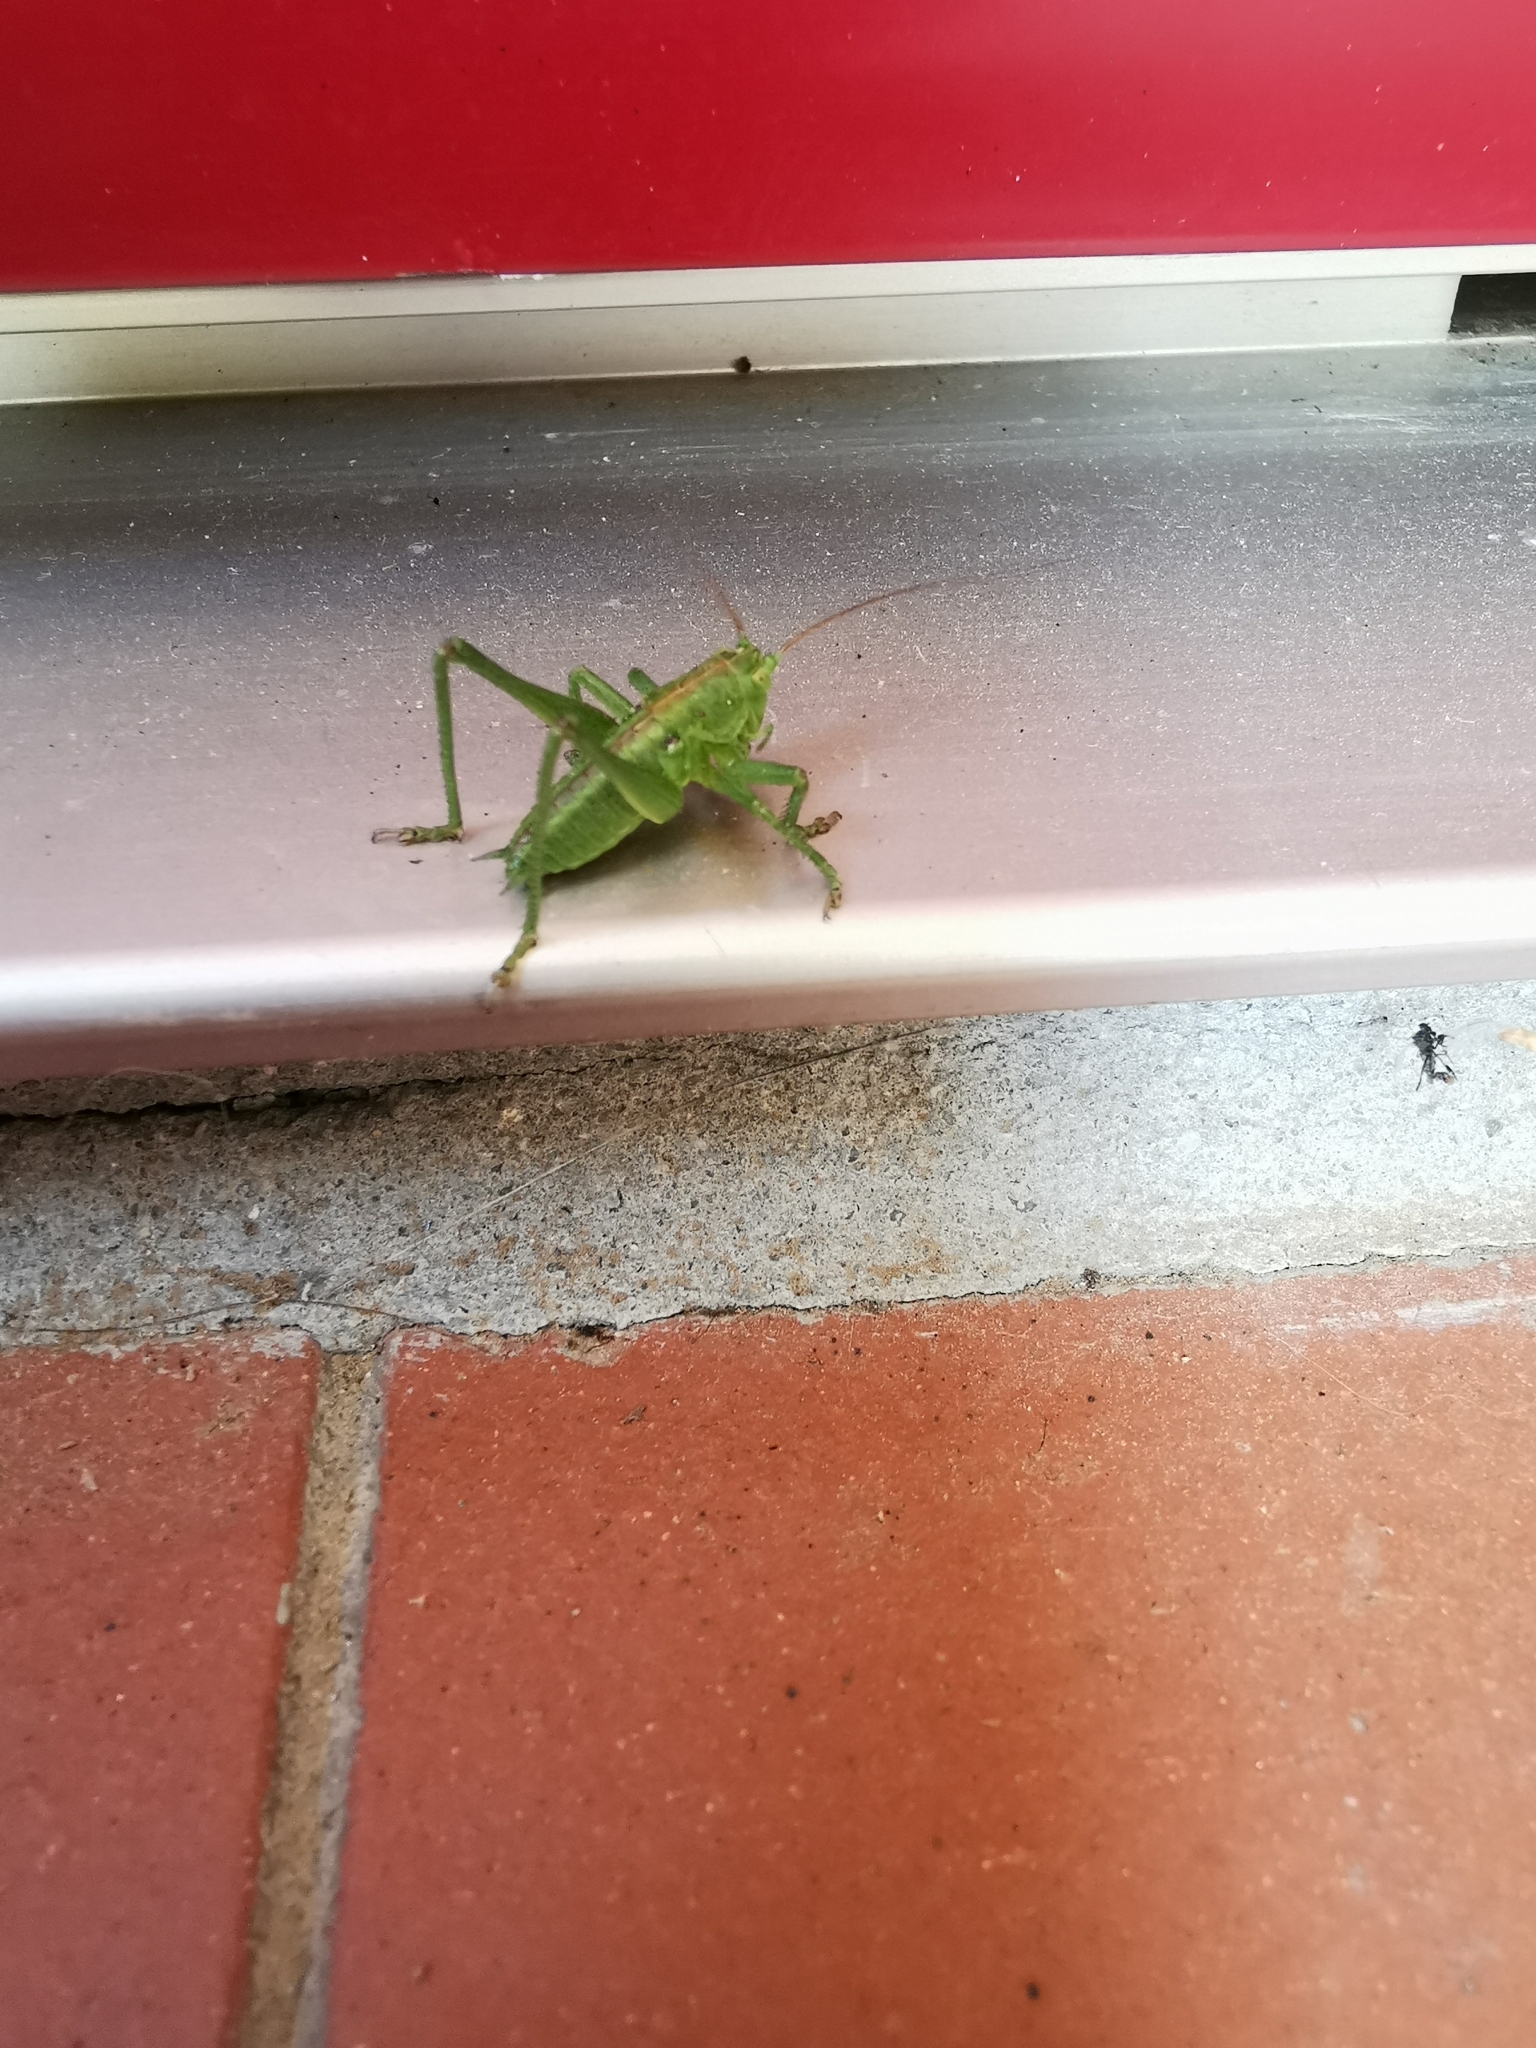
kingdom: Animalia
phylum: Arthropoda
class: Insecta
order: Orthoptera
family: Tettigoniidae
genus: Tettigonia
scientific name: Tettigonia viridissima
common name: Great green bush-cricket
